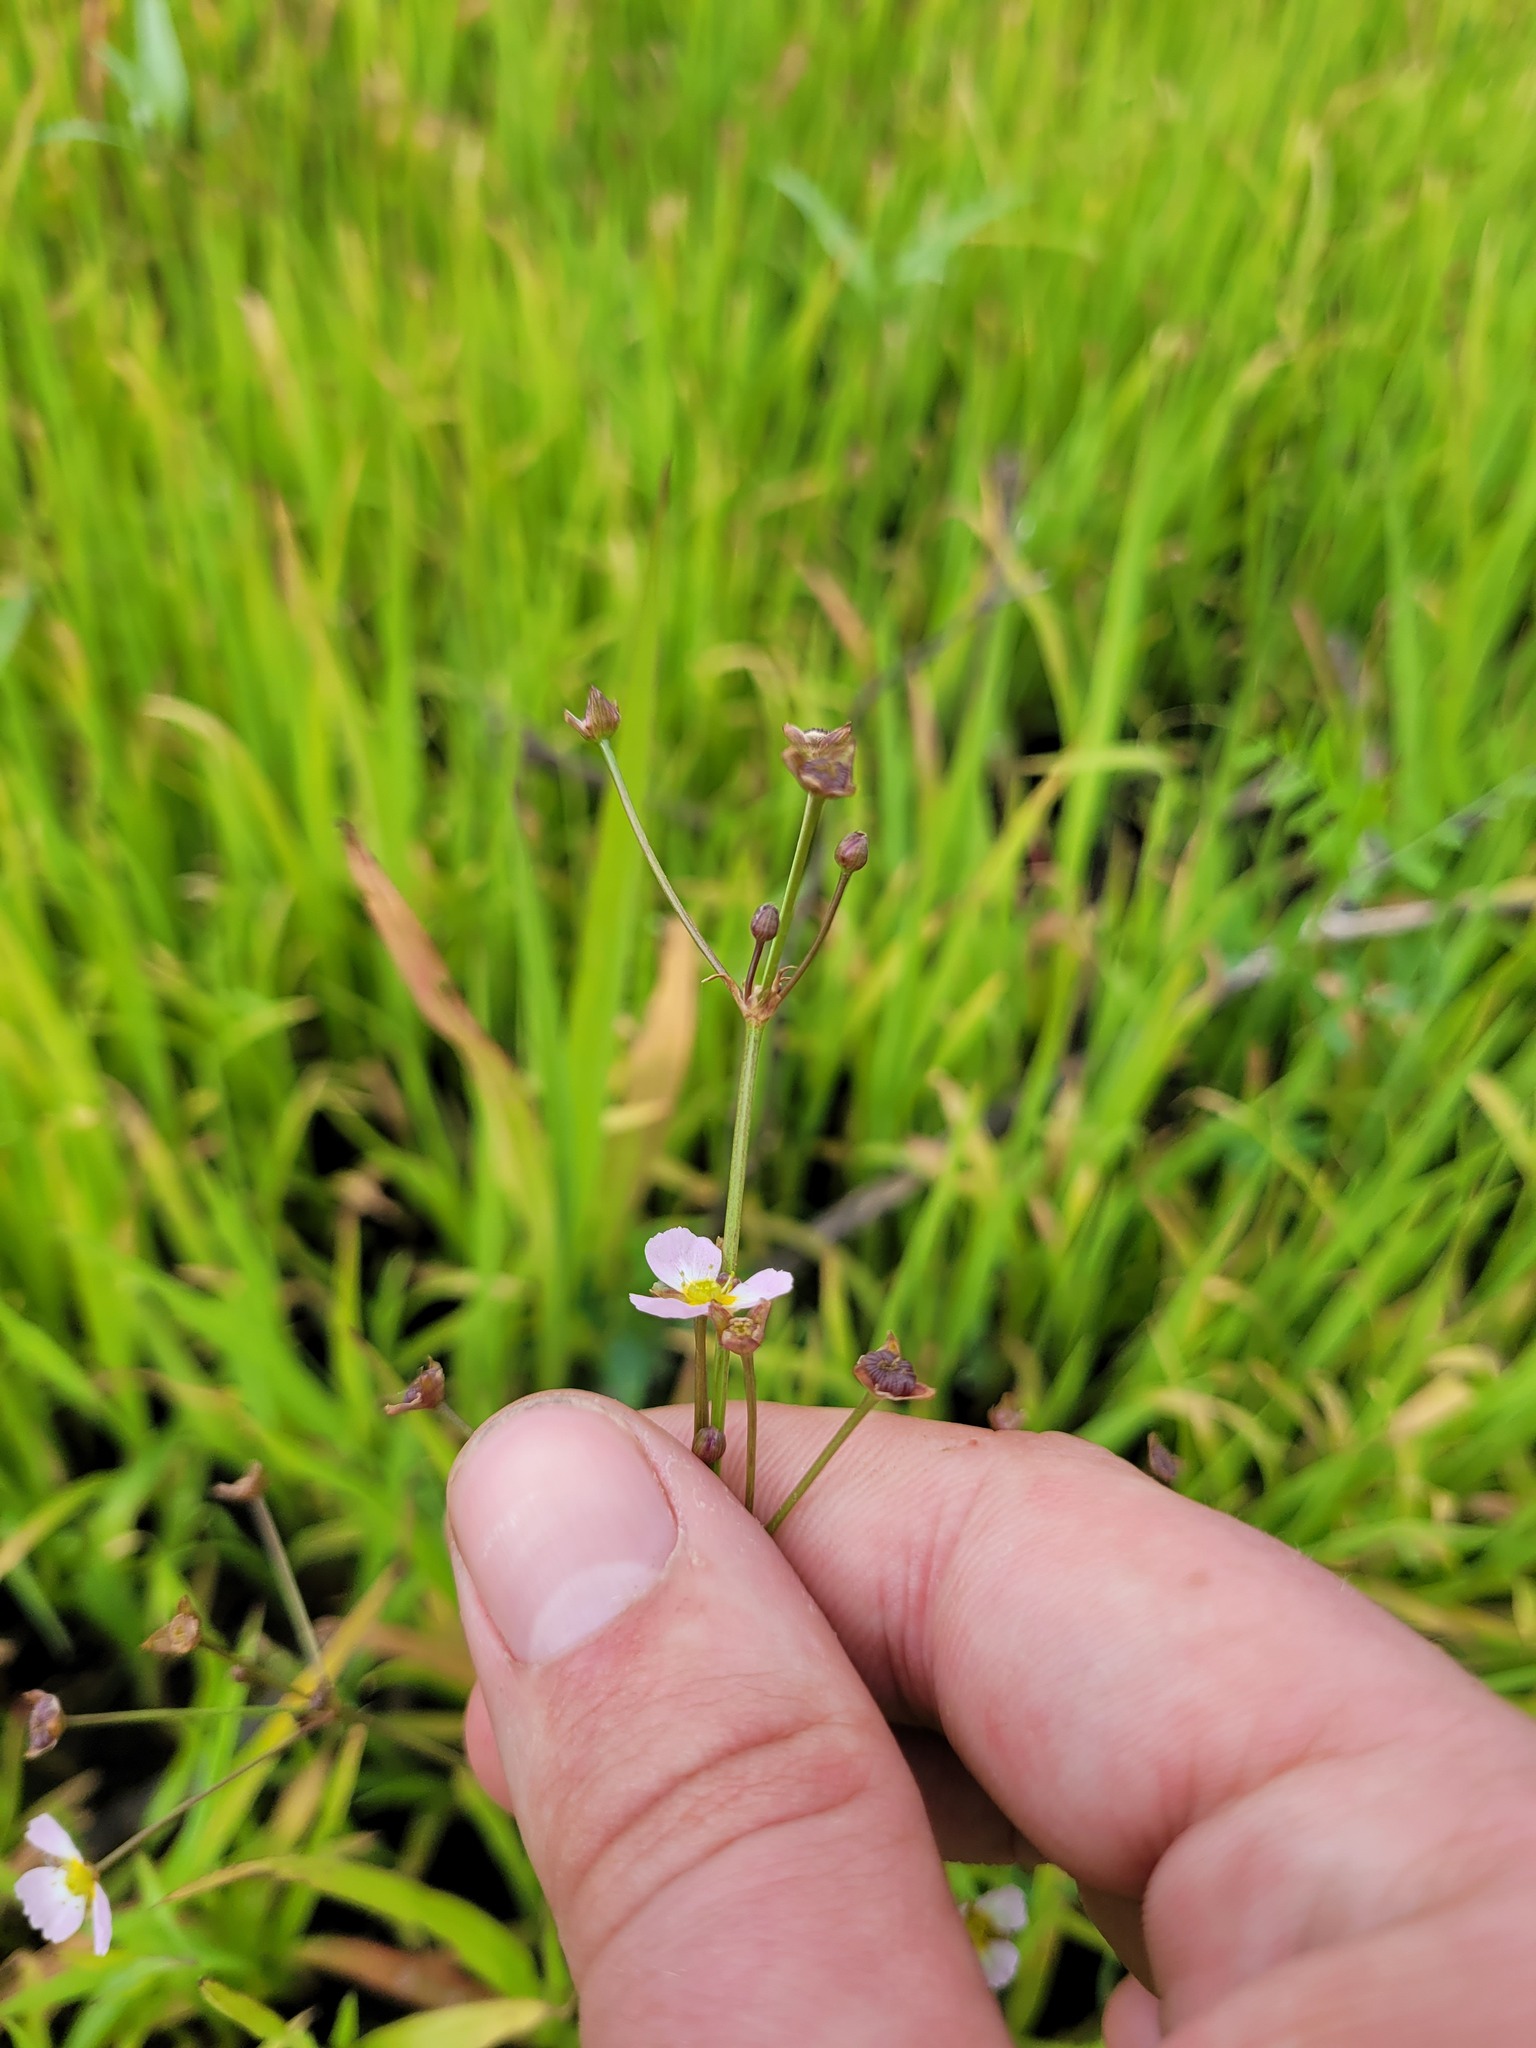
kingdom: Plantae
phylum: Tracheophyta
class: Liliopsida
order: Alismatales
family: Alismataceae
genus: Alisma
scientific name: Alisma lanceolatum
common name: Narrow-leaved water-plantain
